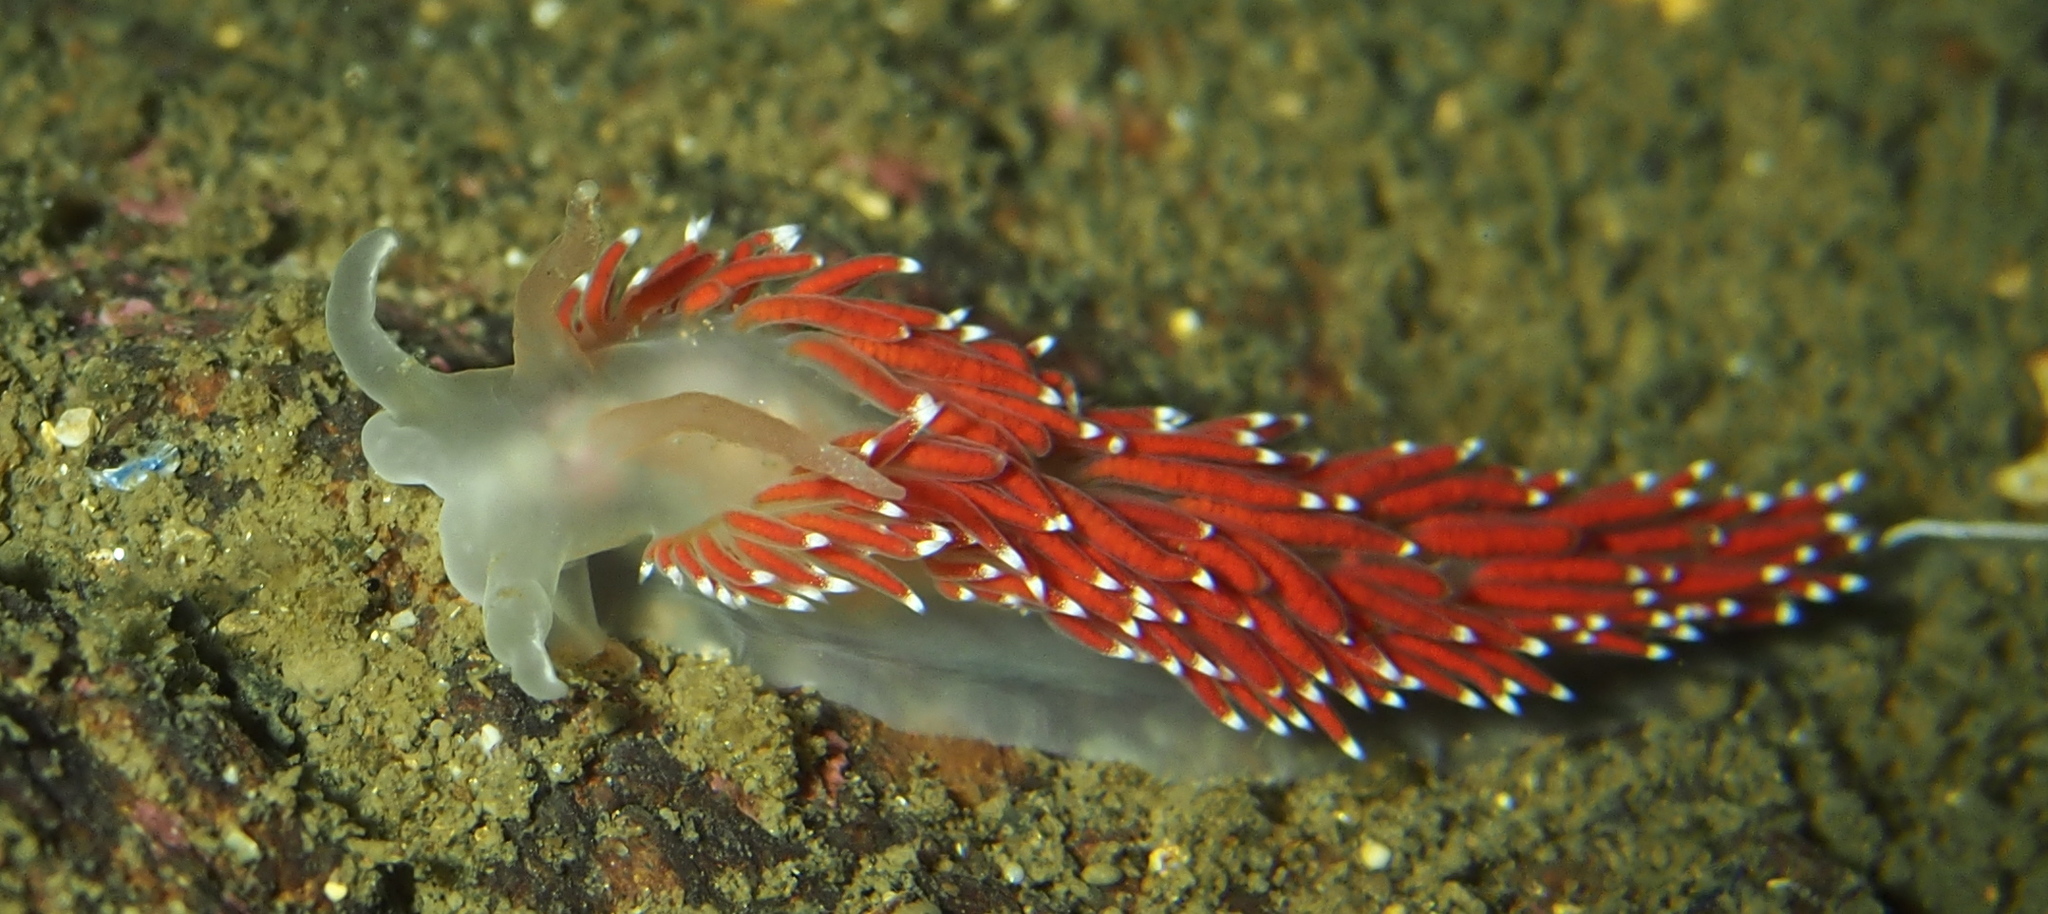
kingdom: Animalia
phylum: Mollusca
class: Gastropoda
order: Nudibranchia
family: Coryphellidae
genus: Coryphella
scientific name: Coryphella nobilis
